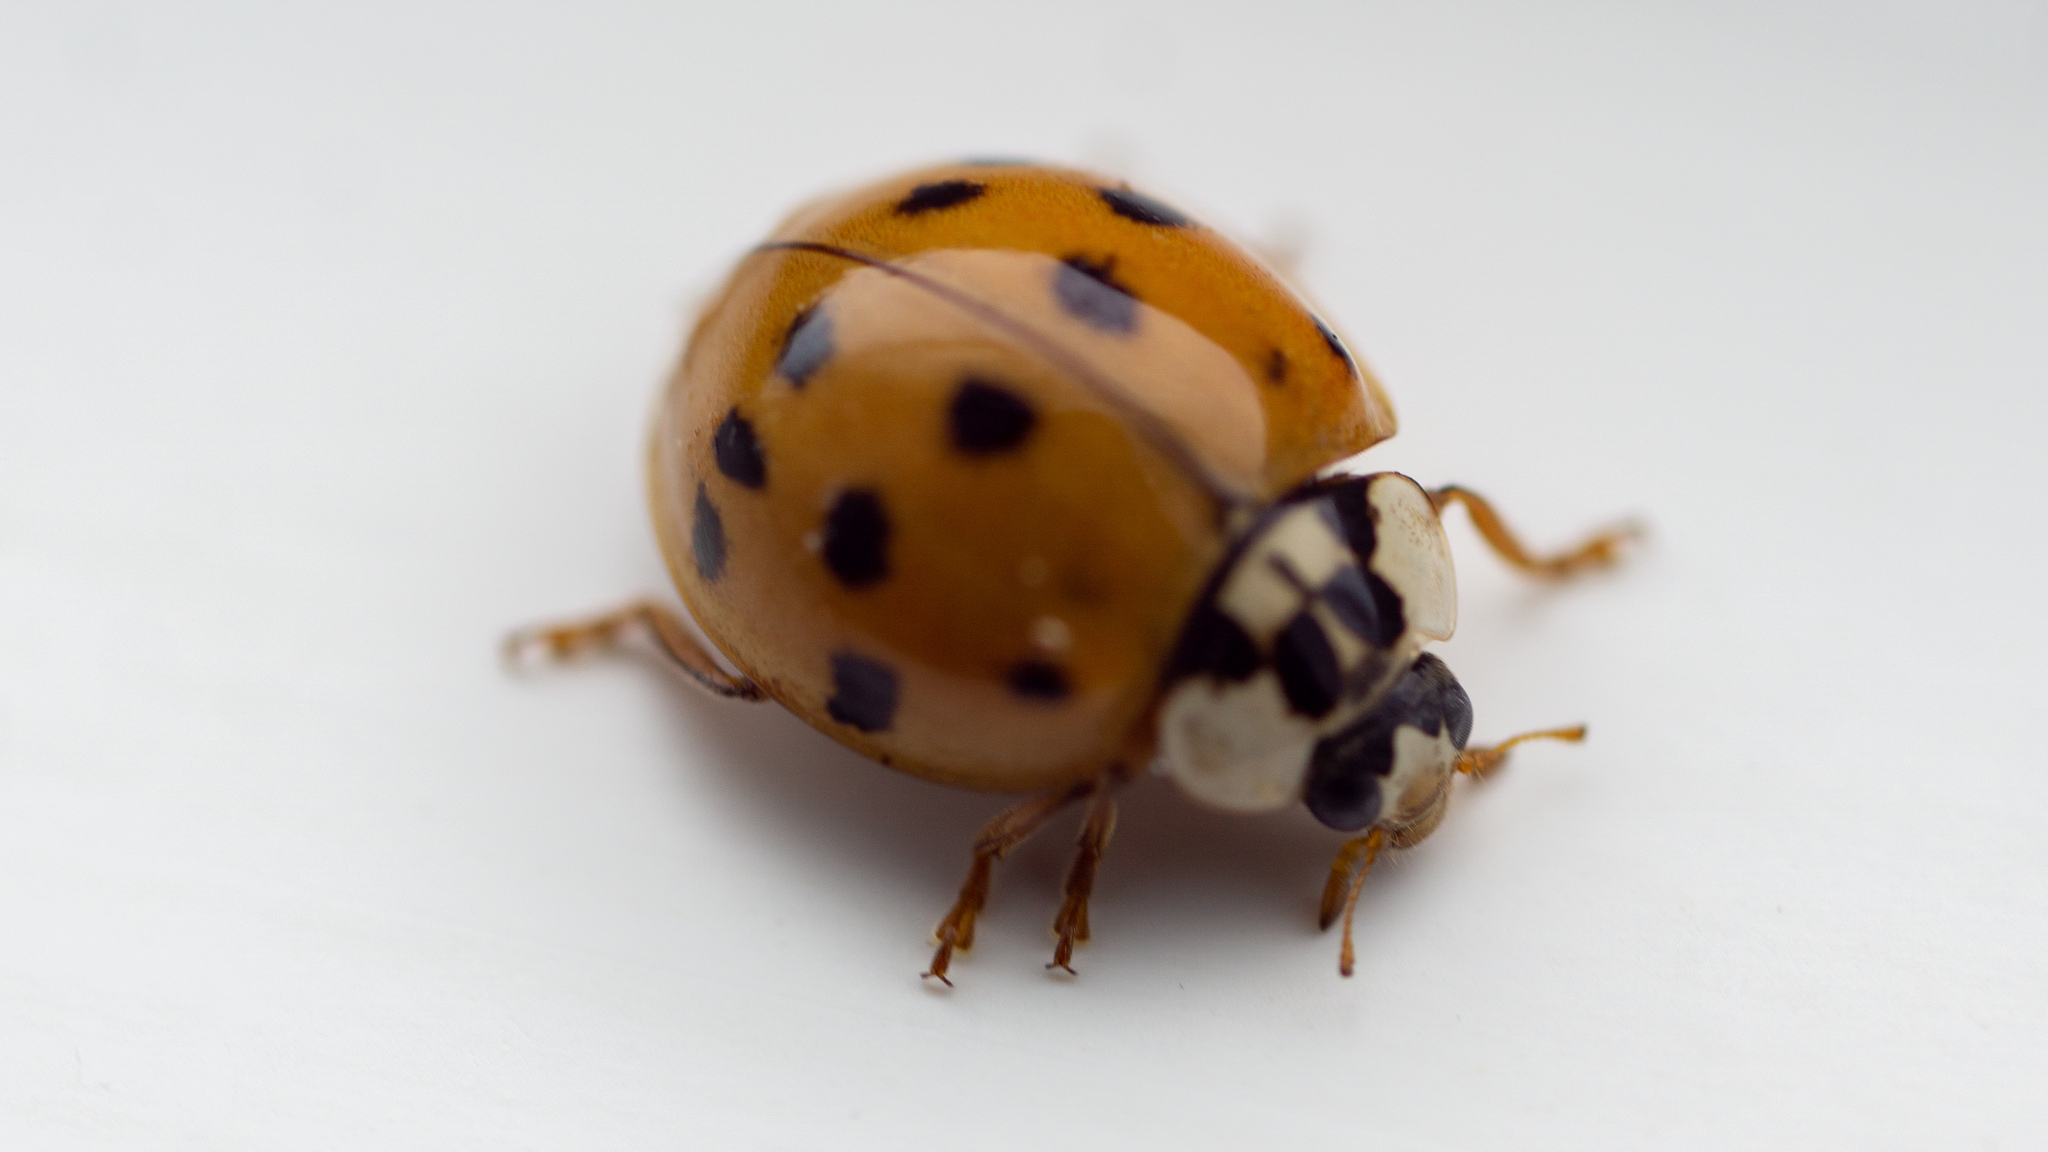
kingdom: Animalia
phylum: Arthropoda
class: Insecta
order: Coleoptera
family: Coccinellidae
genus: Harmonia
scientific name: Harmonia axyridis
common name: Harlequin ladybird
